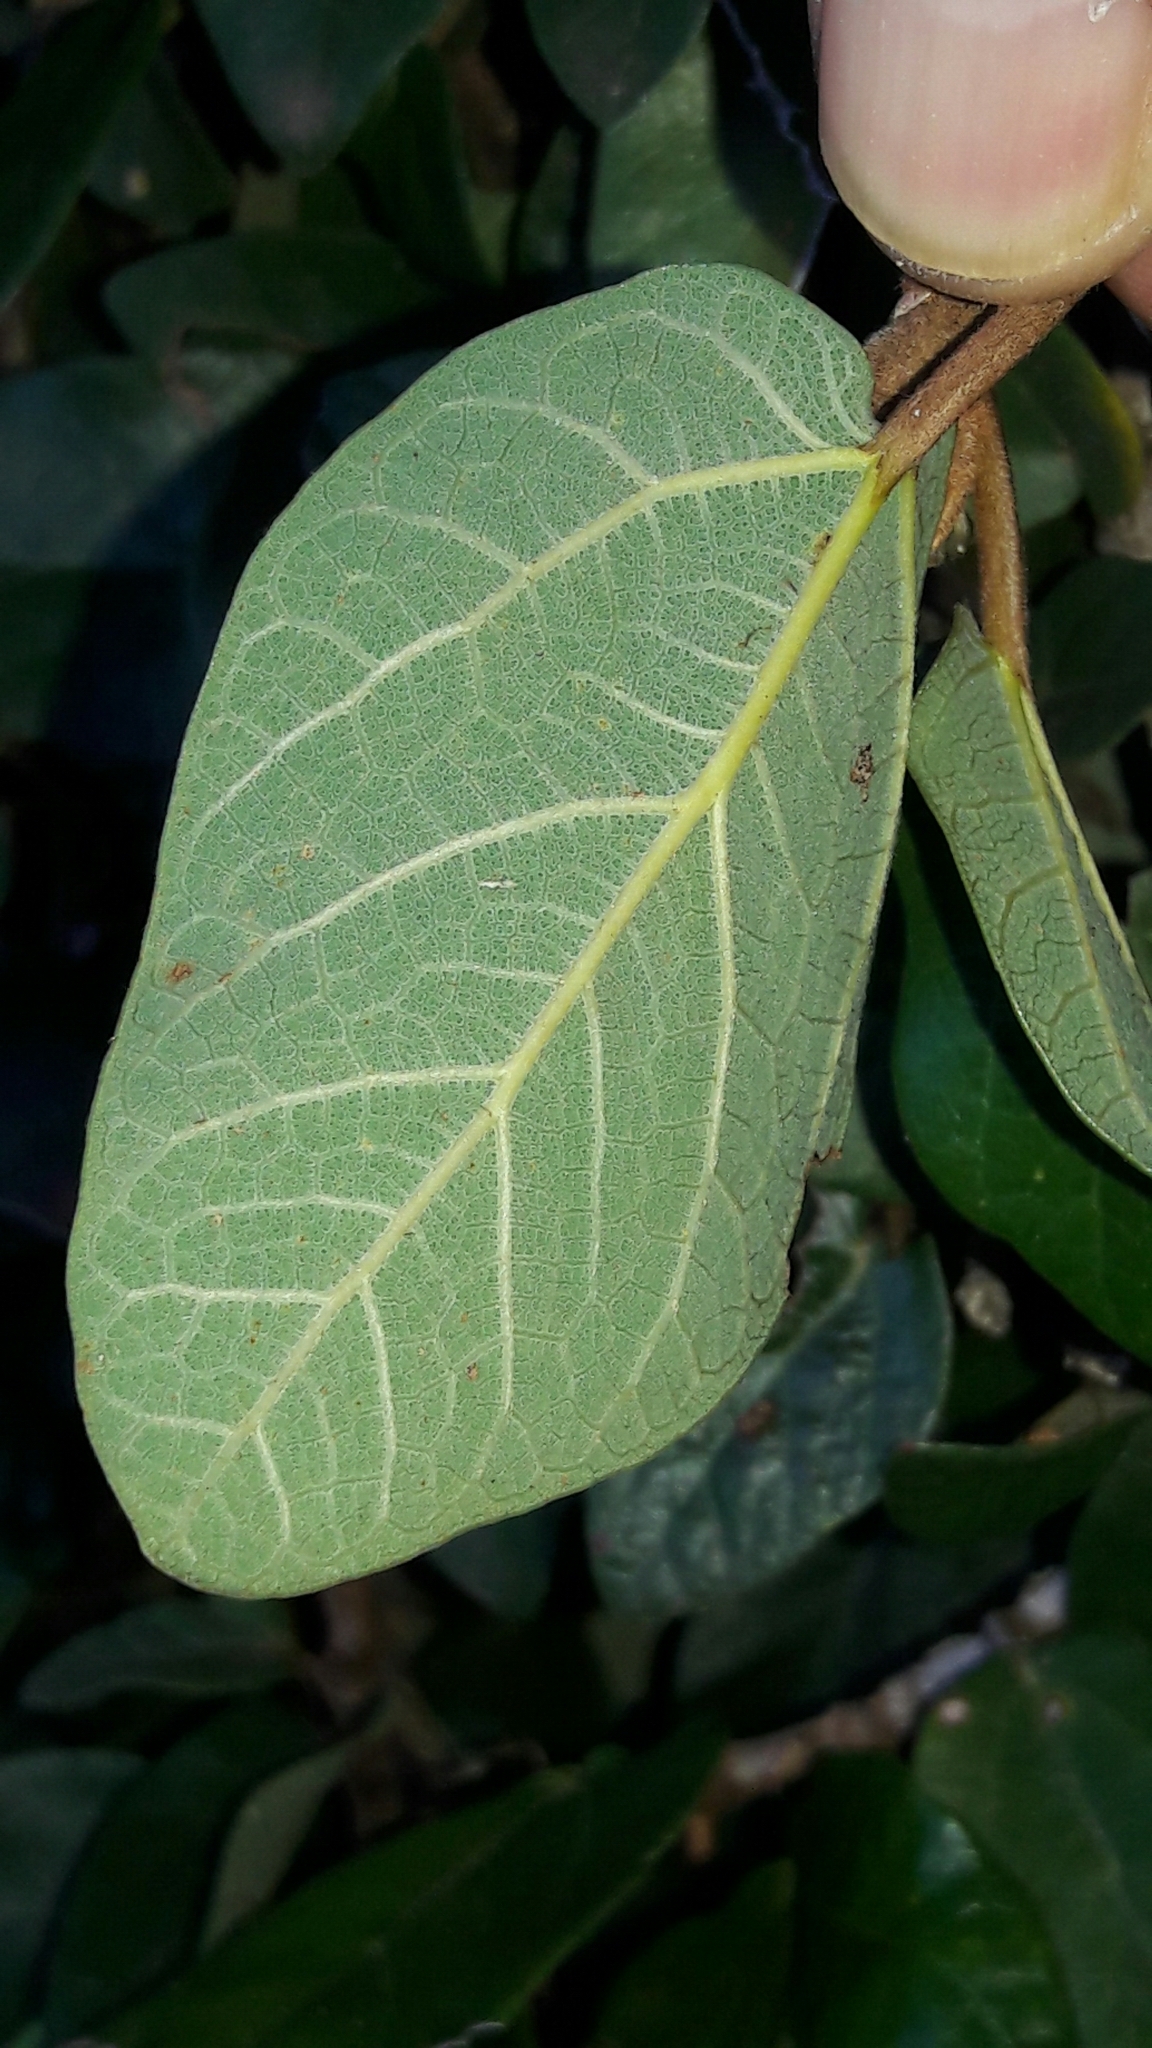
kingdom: Plantae
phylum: Tracheophyta
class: Magnoliopsida
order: Rosales
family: Moraceae
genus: Ficus
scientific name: Ficus pumila
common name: Climbingfig
